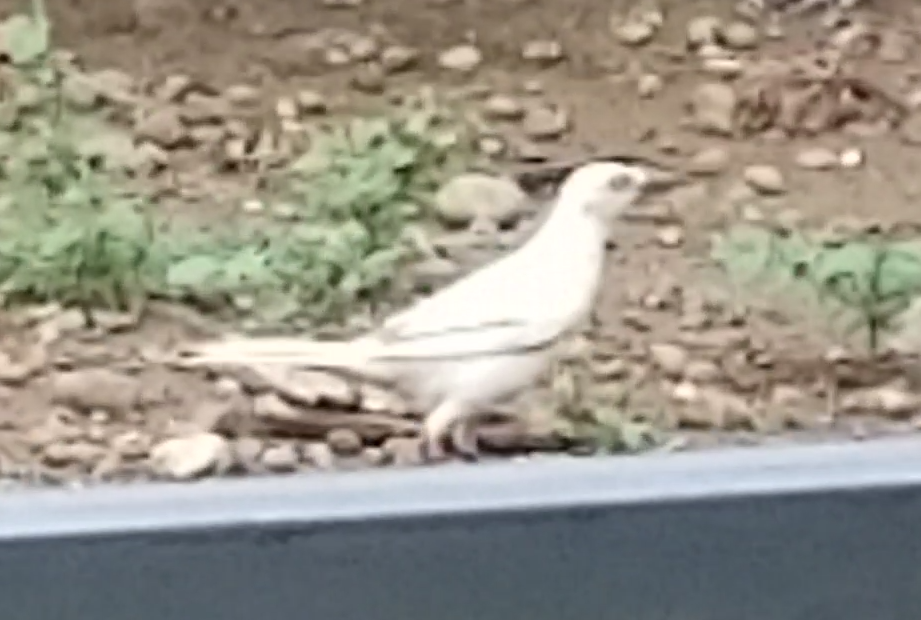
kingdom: Animalia
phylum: Chordata
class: Aves
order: Passeriformes
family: Icteridae
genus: Quiscalus
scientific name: Quiscalus mexicanus
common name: Great-tailed grackle
